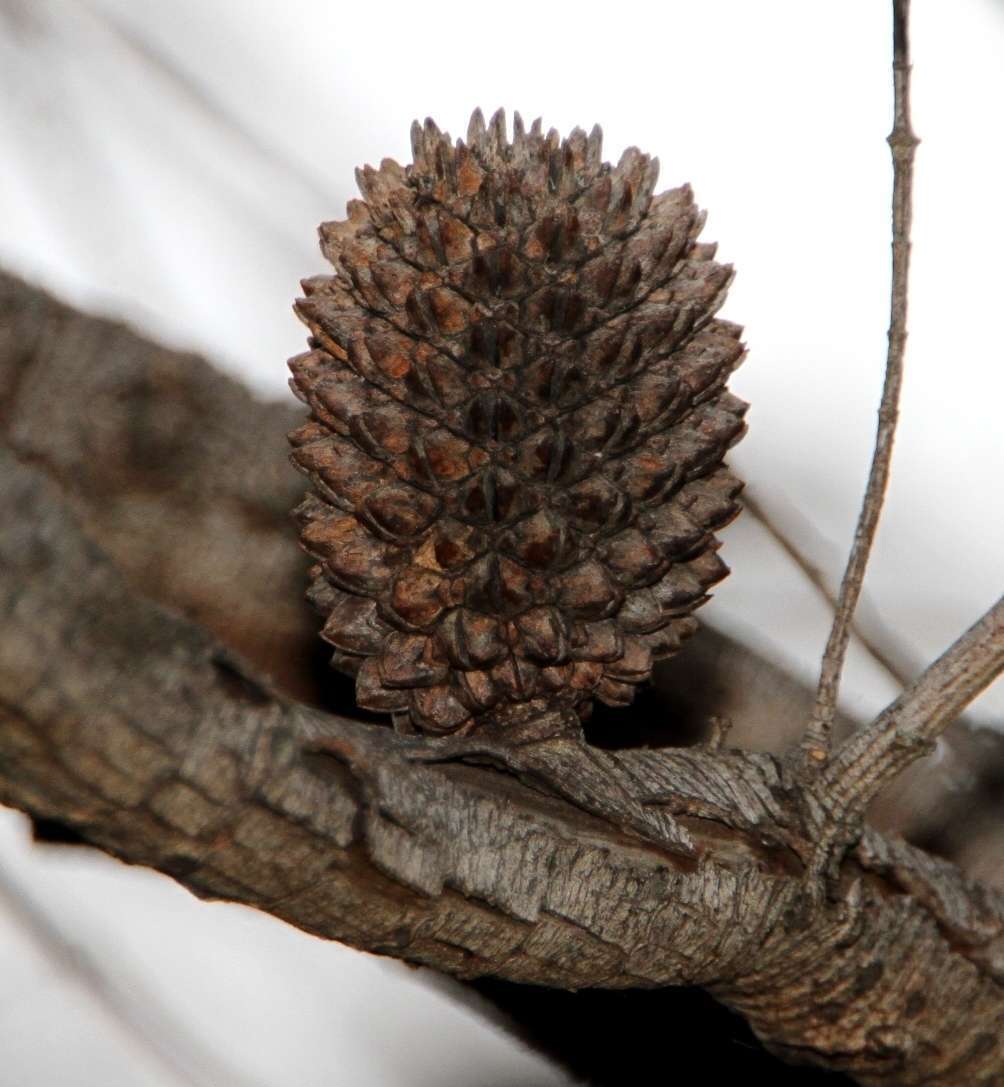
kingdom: Plantae
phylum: Tracheophyta
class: Magnoliopsida
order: Fagales
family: Casuarinaceae
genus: Allocasuarina
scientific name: Allocasuarina verticillata
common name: Drooping she-oak
